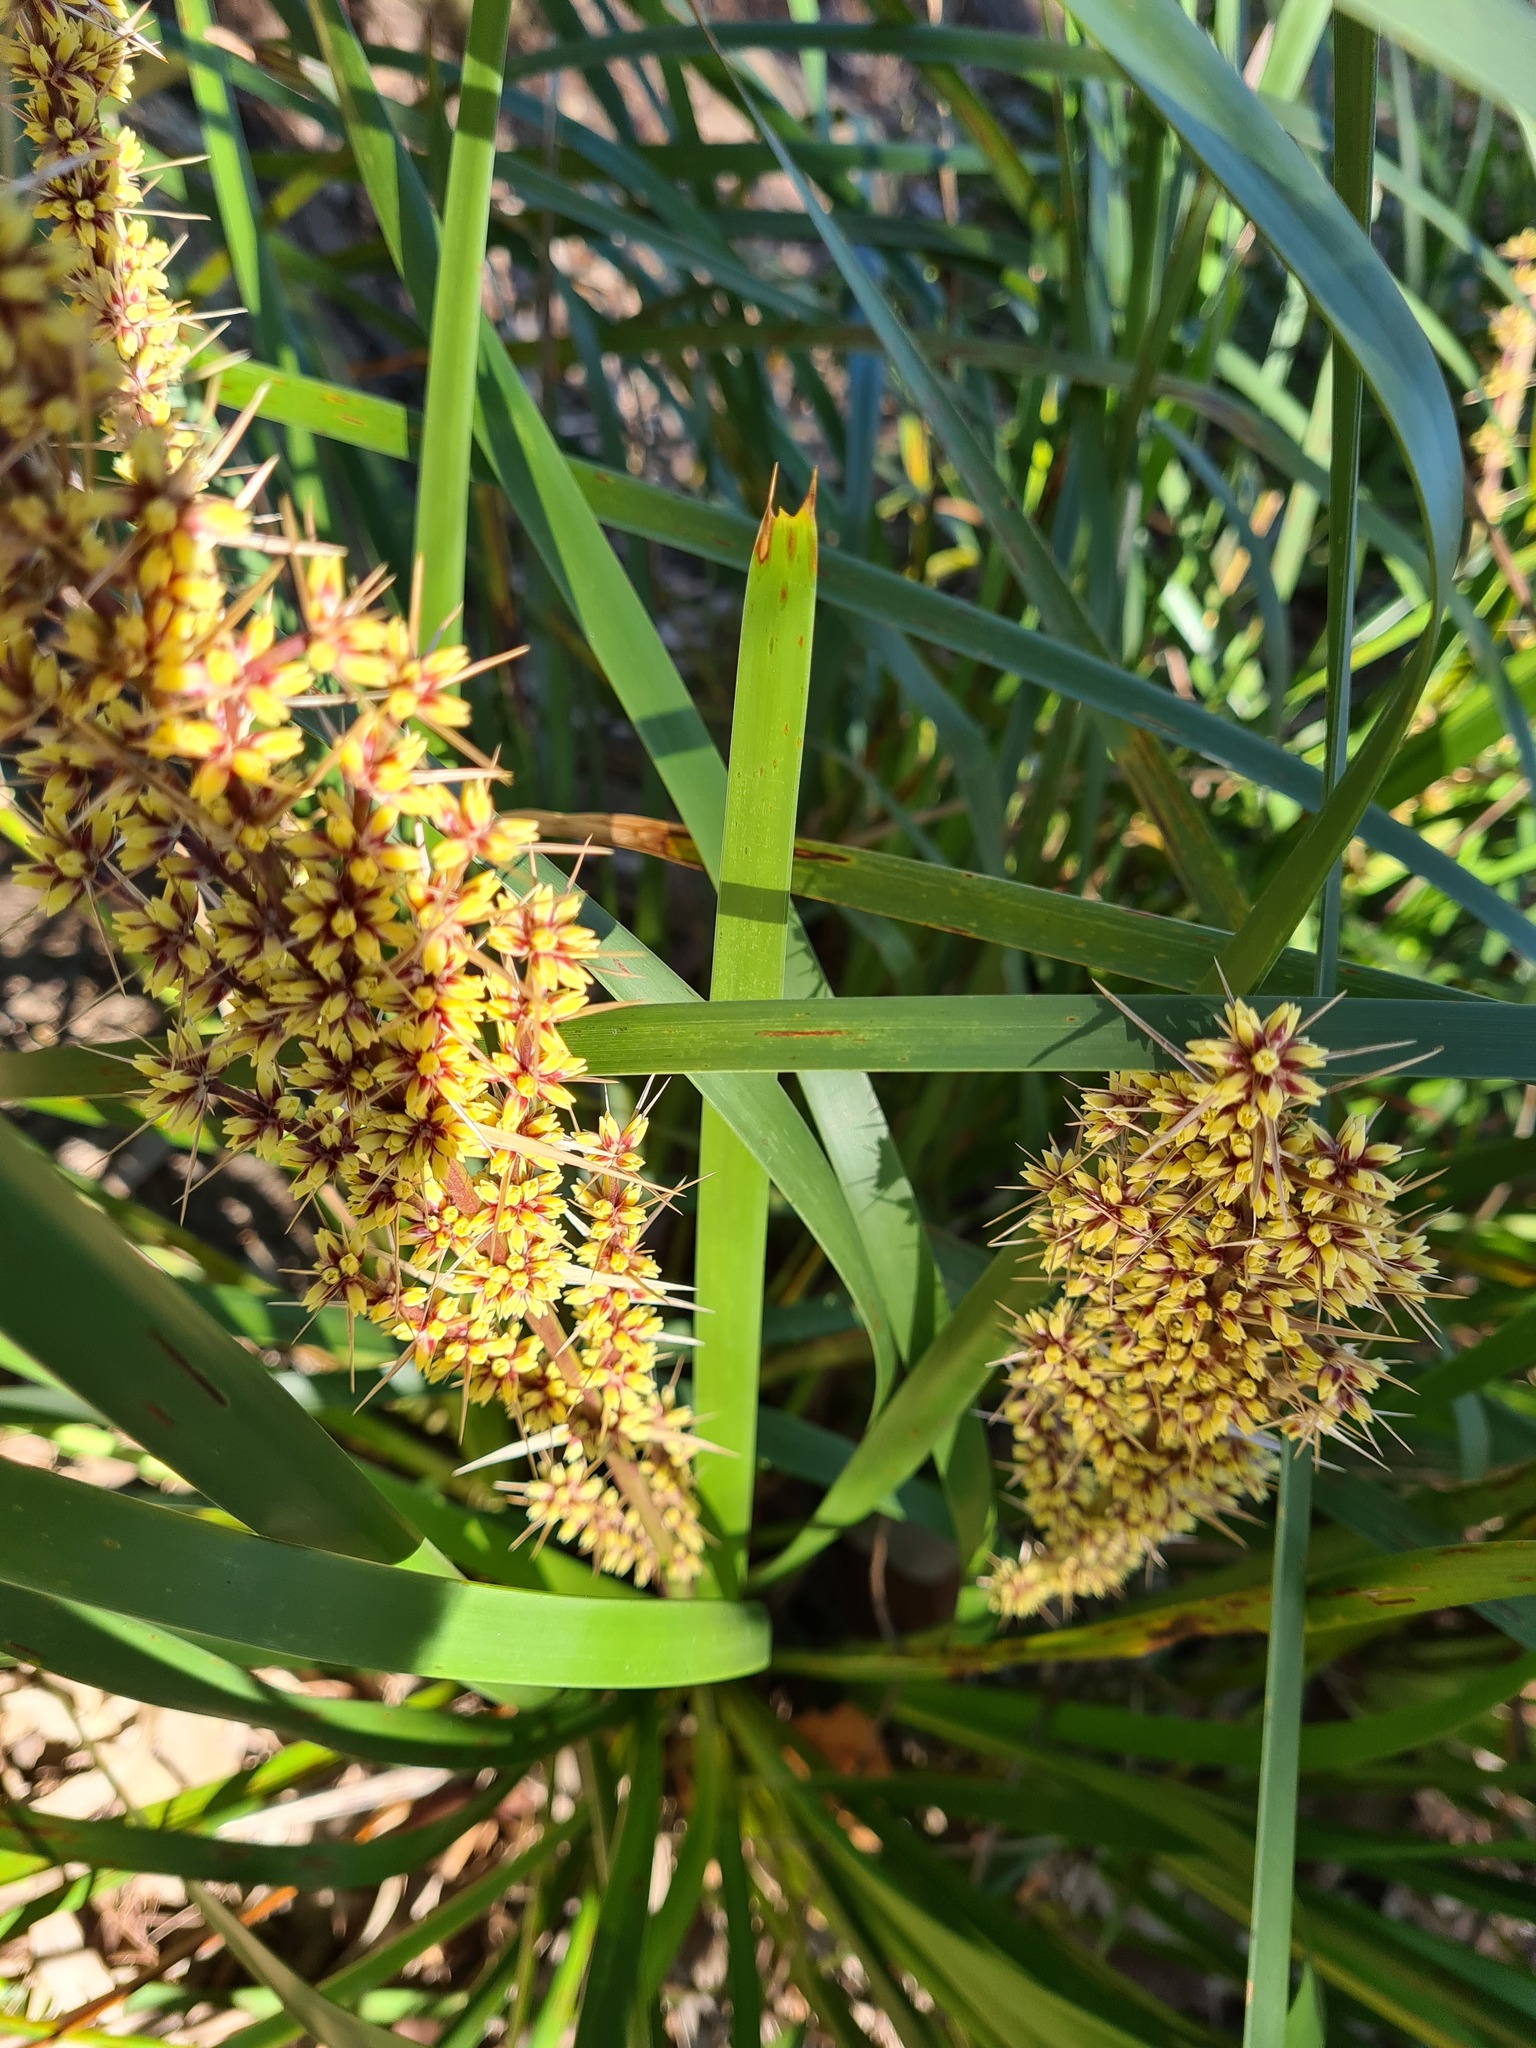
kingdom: Plantae
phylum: Tracheophyta
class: Liliopsida
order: Asparagales
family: Asparagaceae
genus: Lomandra
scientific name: Lomandra longifolia
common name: Longleaf mat-rush
